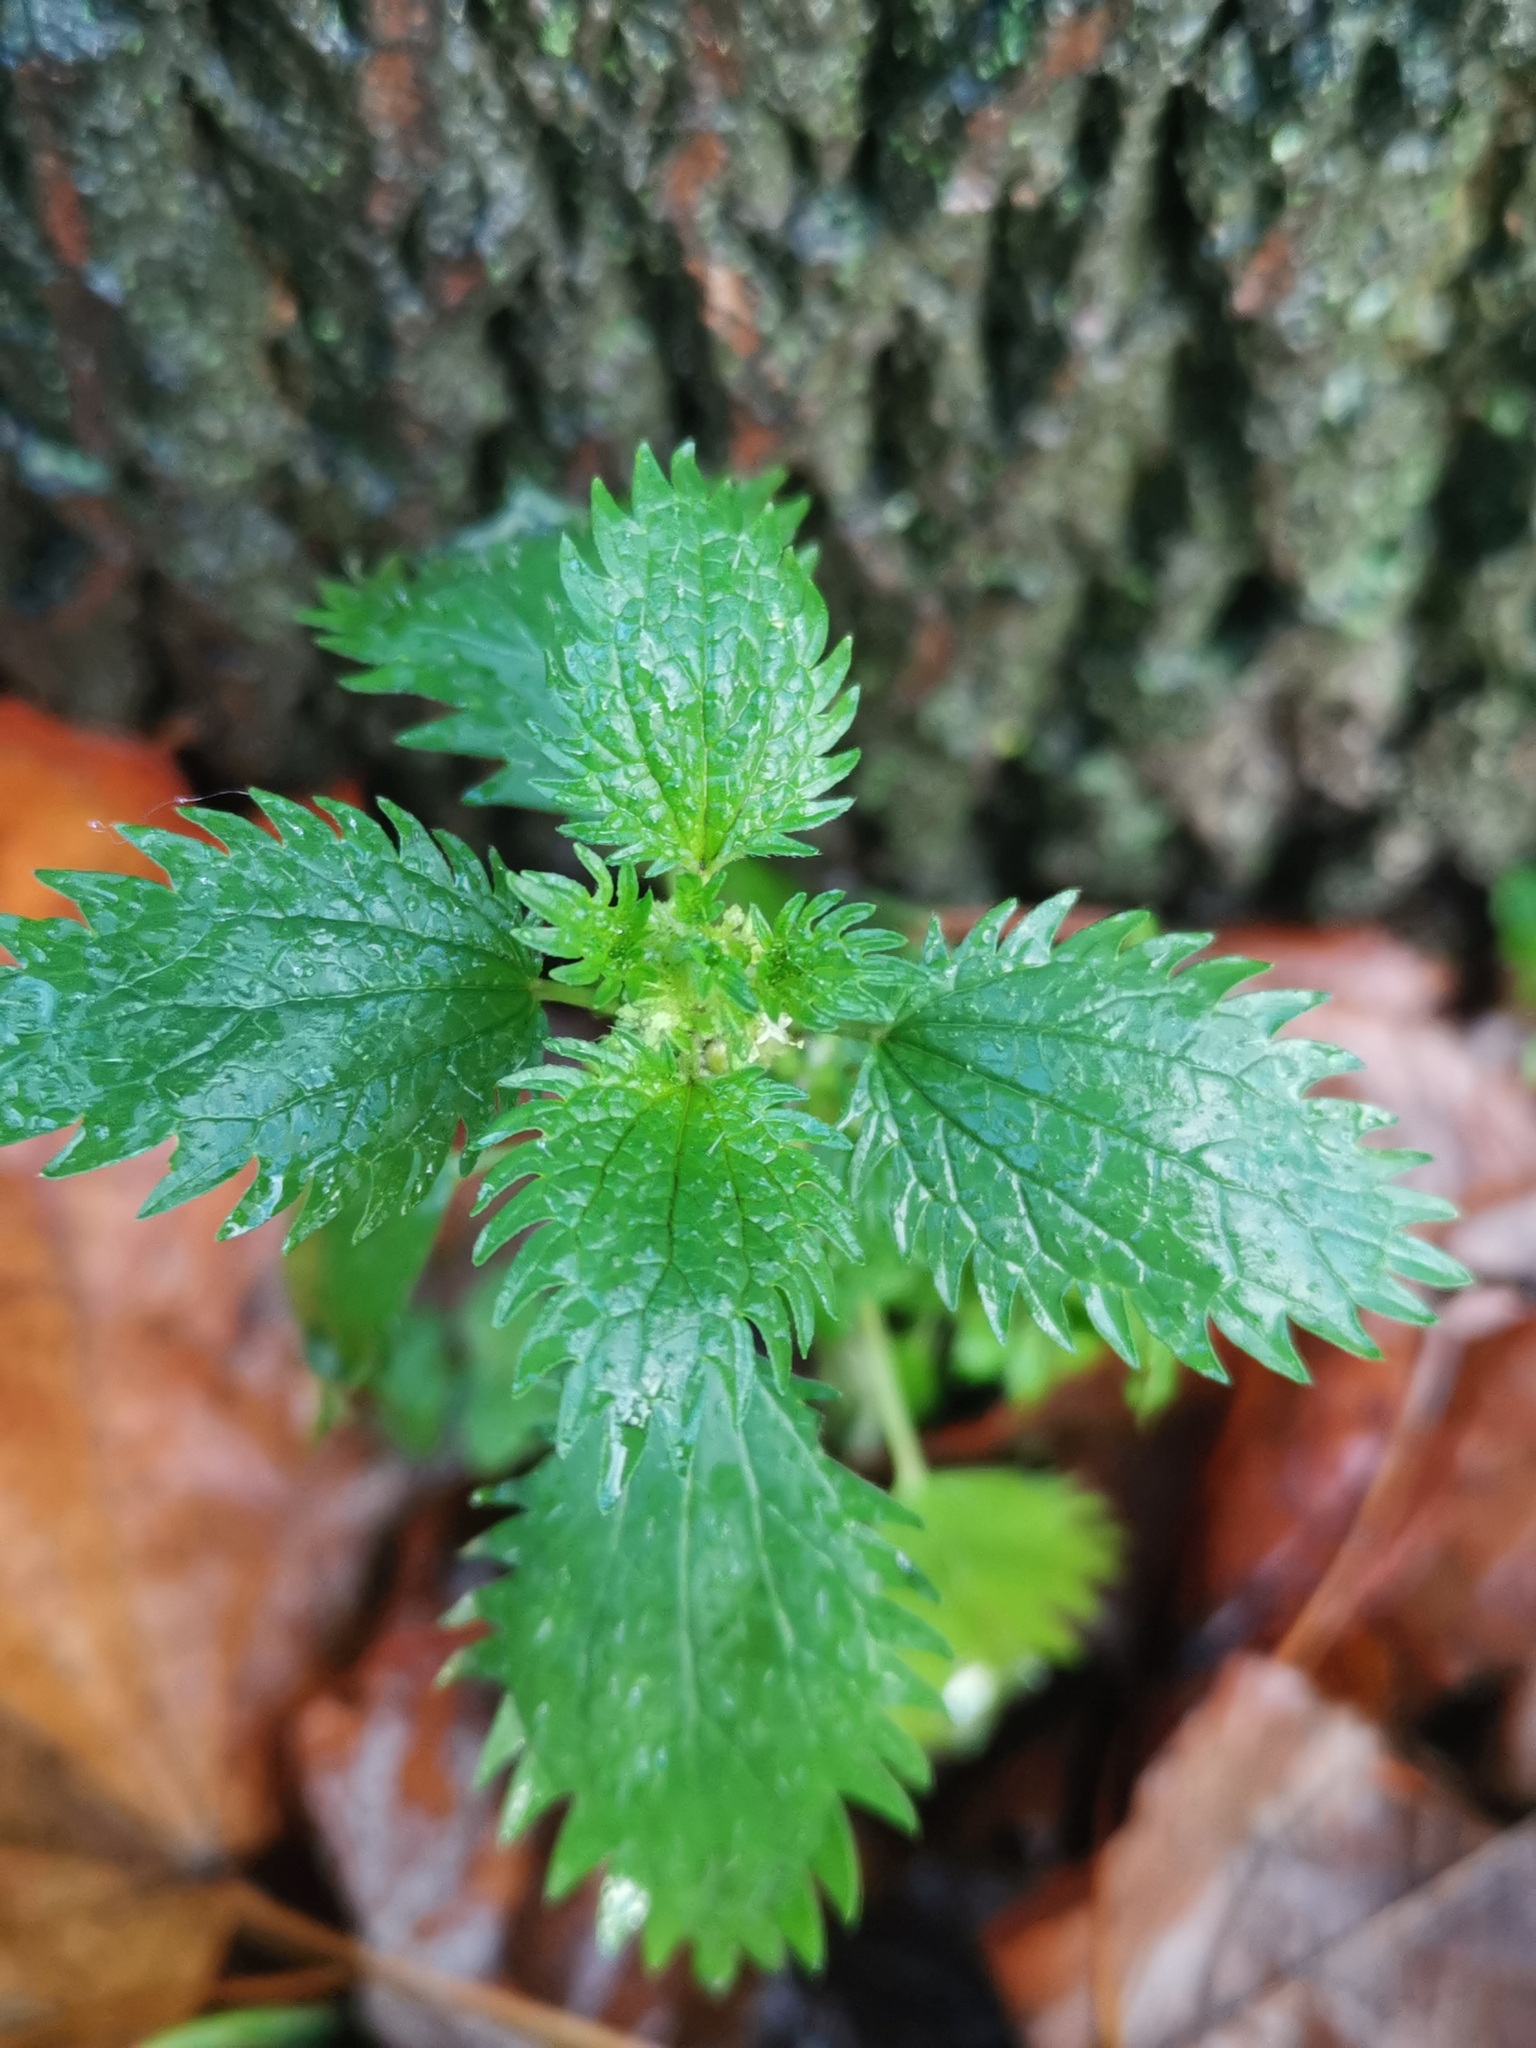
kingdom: Plantae
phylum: Tracheophyta
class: Magnoliopsida
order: Rosales
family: Urticaceae
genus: Urtica
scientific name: Urtica urens
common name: Dwarf nettle
